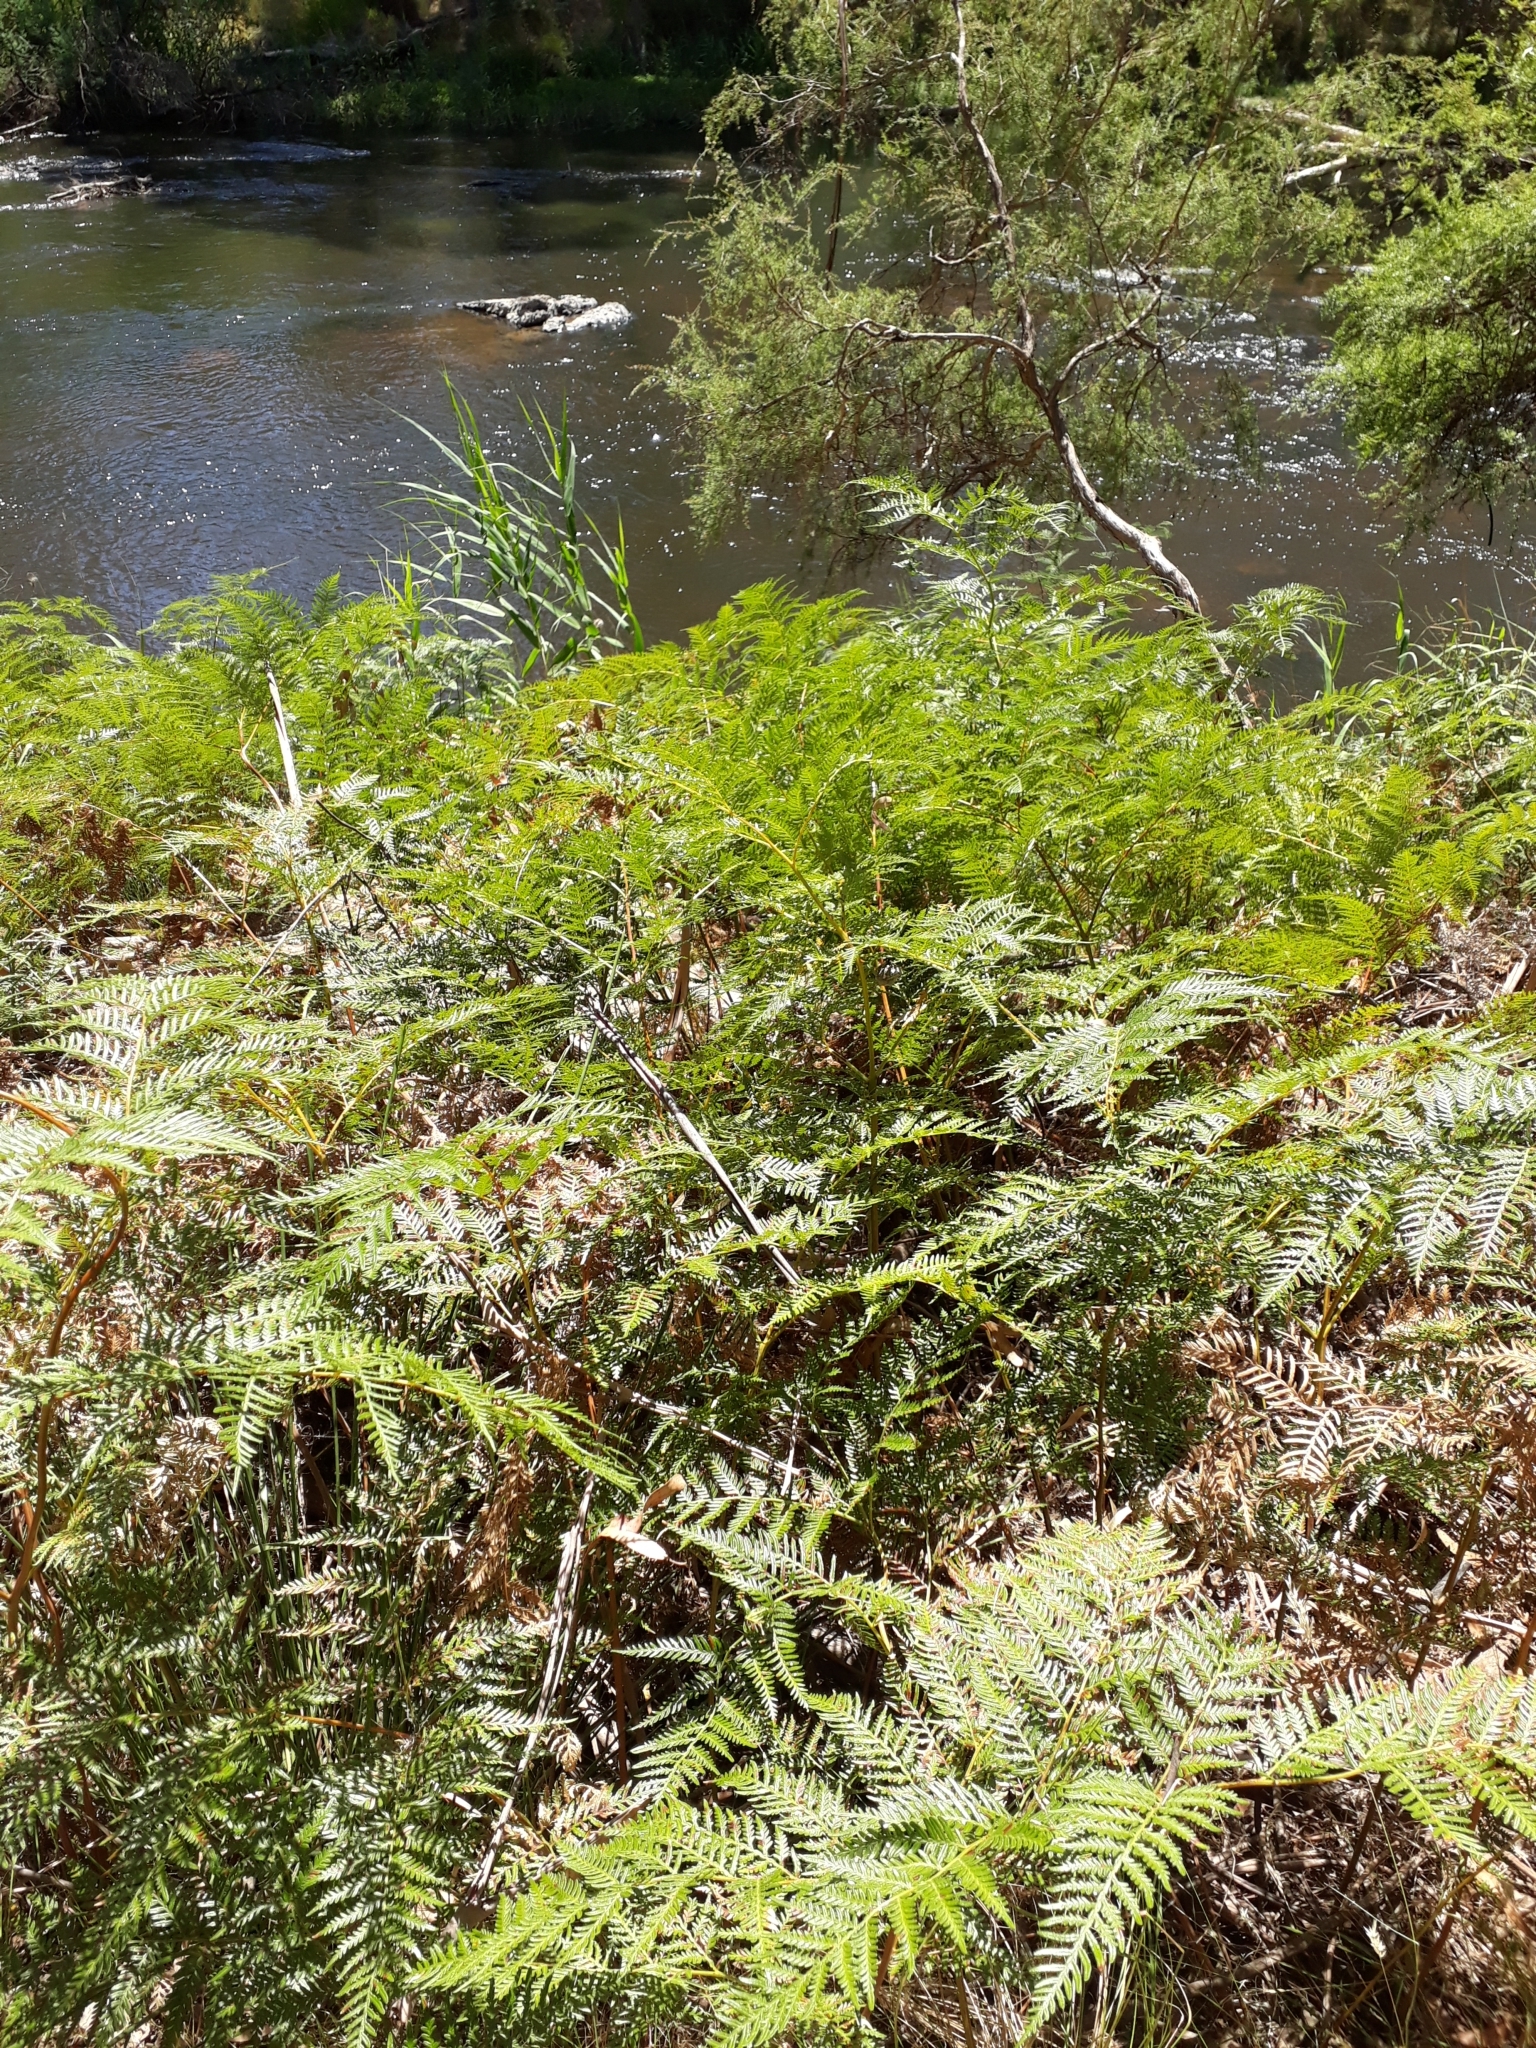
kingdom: Plantae
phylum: Tracheophyta
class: Polypodiopsida
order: Polypodiales
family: Dennstaedtiaceae
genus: Pteridium
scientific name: Pteridium esculentum
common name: Bracken fern
